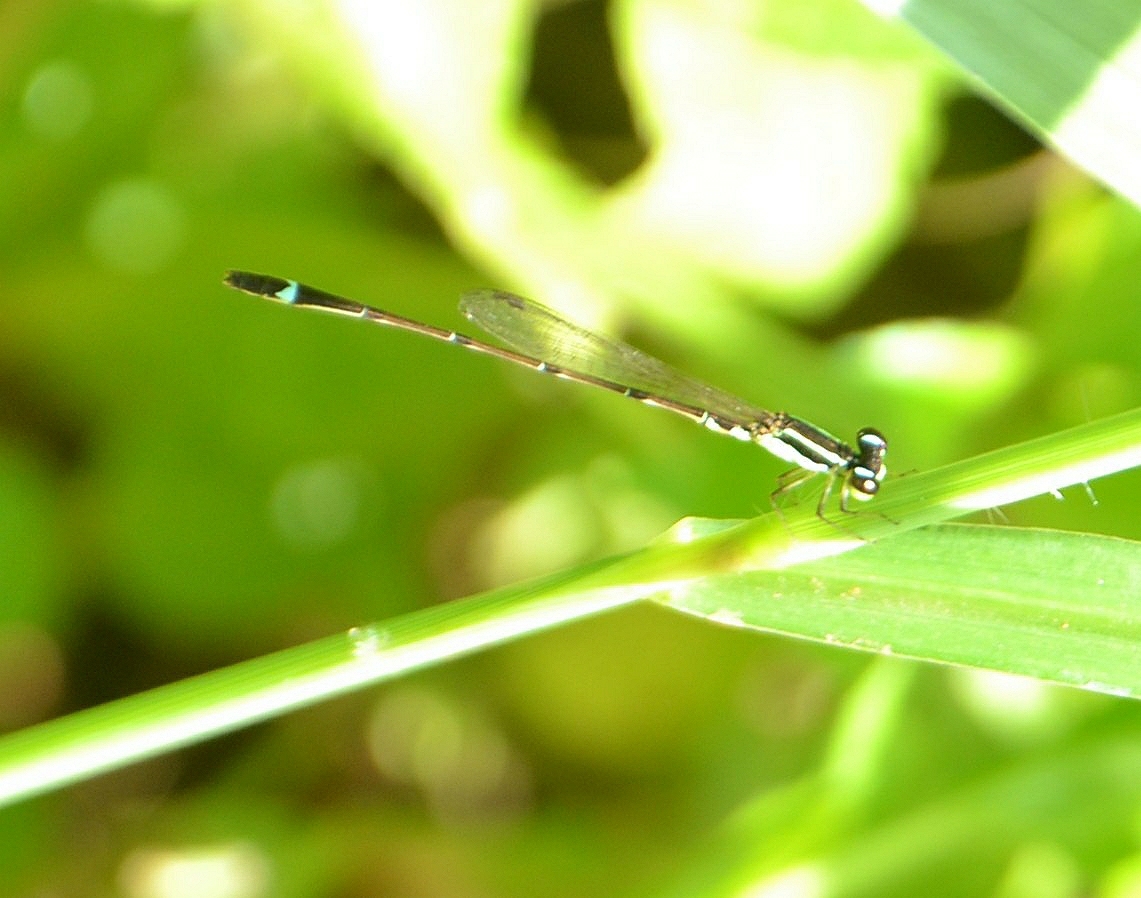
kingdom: Animalia
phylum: Arthropoda
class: Insecta
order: Odonata
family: Coenagrionidae
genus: Mortonagrion
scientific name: Mortonagrion varralli
